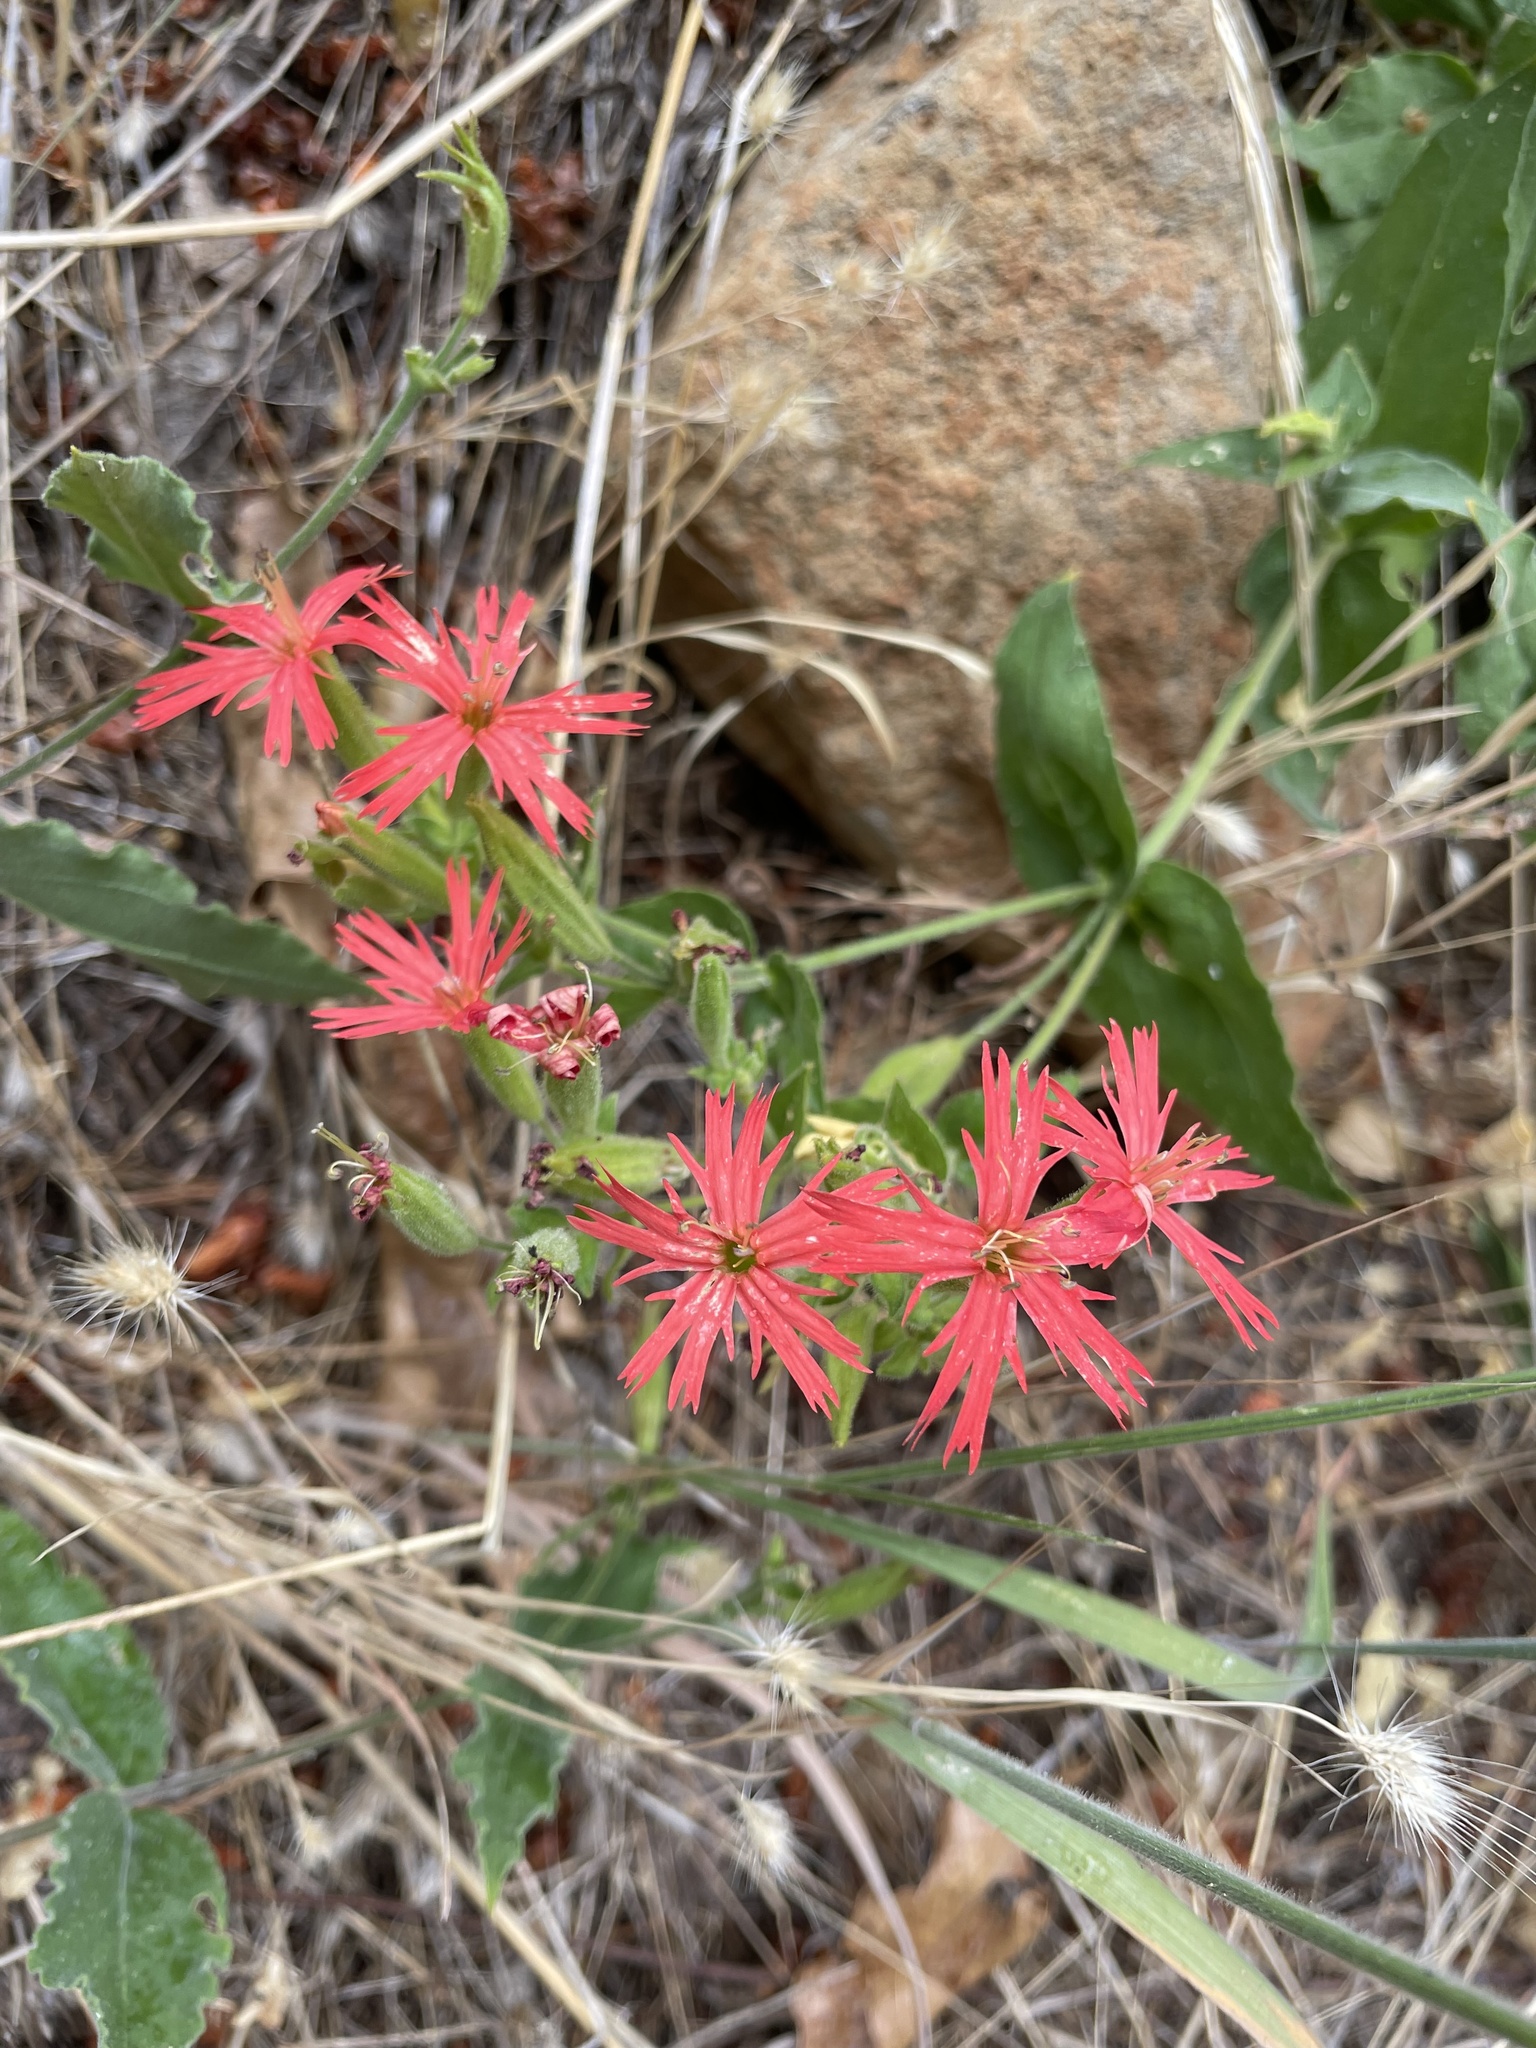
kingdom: Plantae
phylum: Tracheophyta
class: Magnoliopsida
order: Caryophyllales
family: Caryophyllaceae
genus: Silene
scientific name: Silene laciniata
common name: Indian-pink
